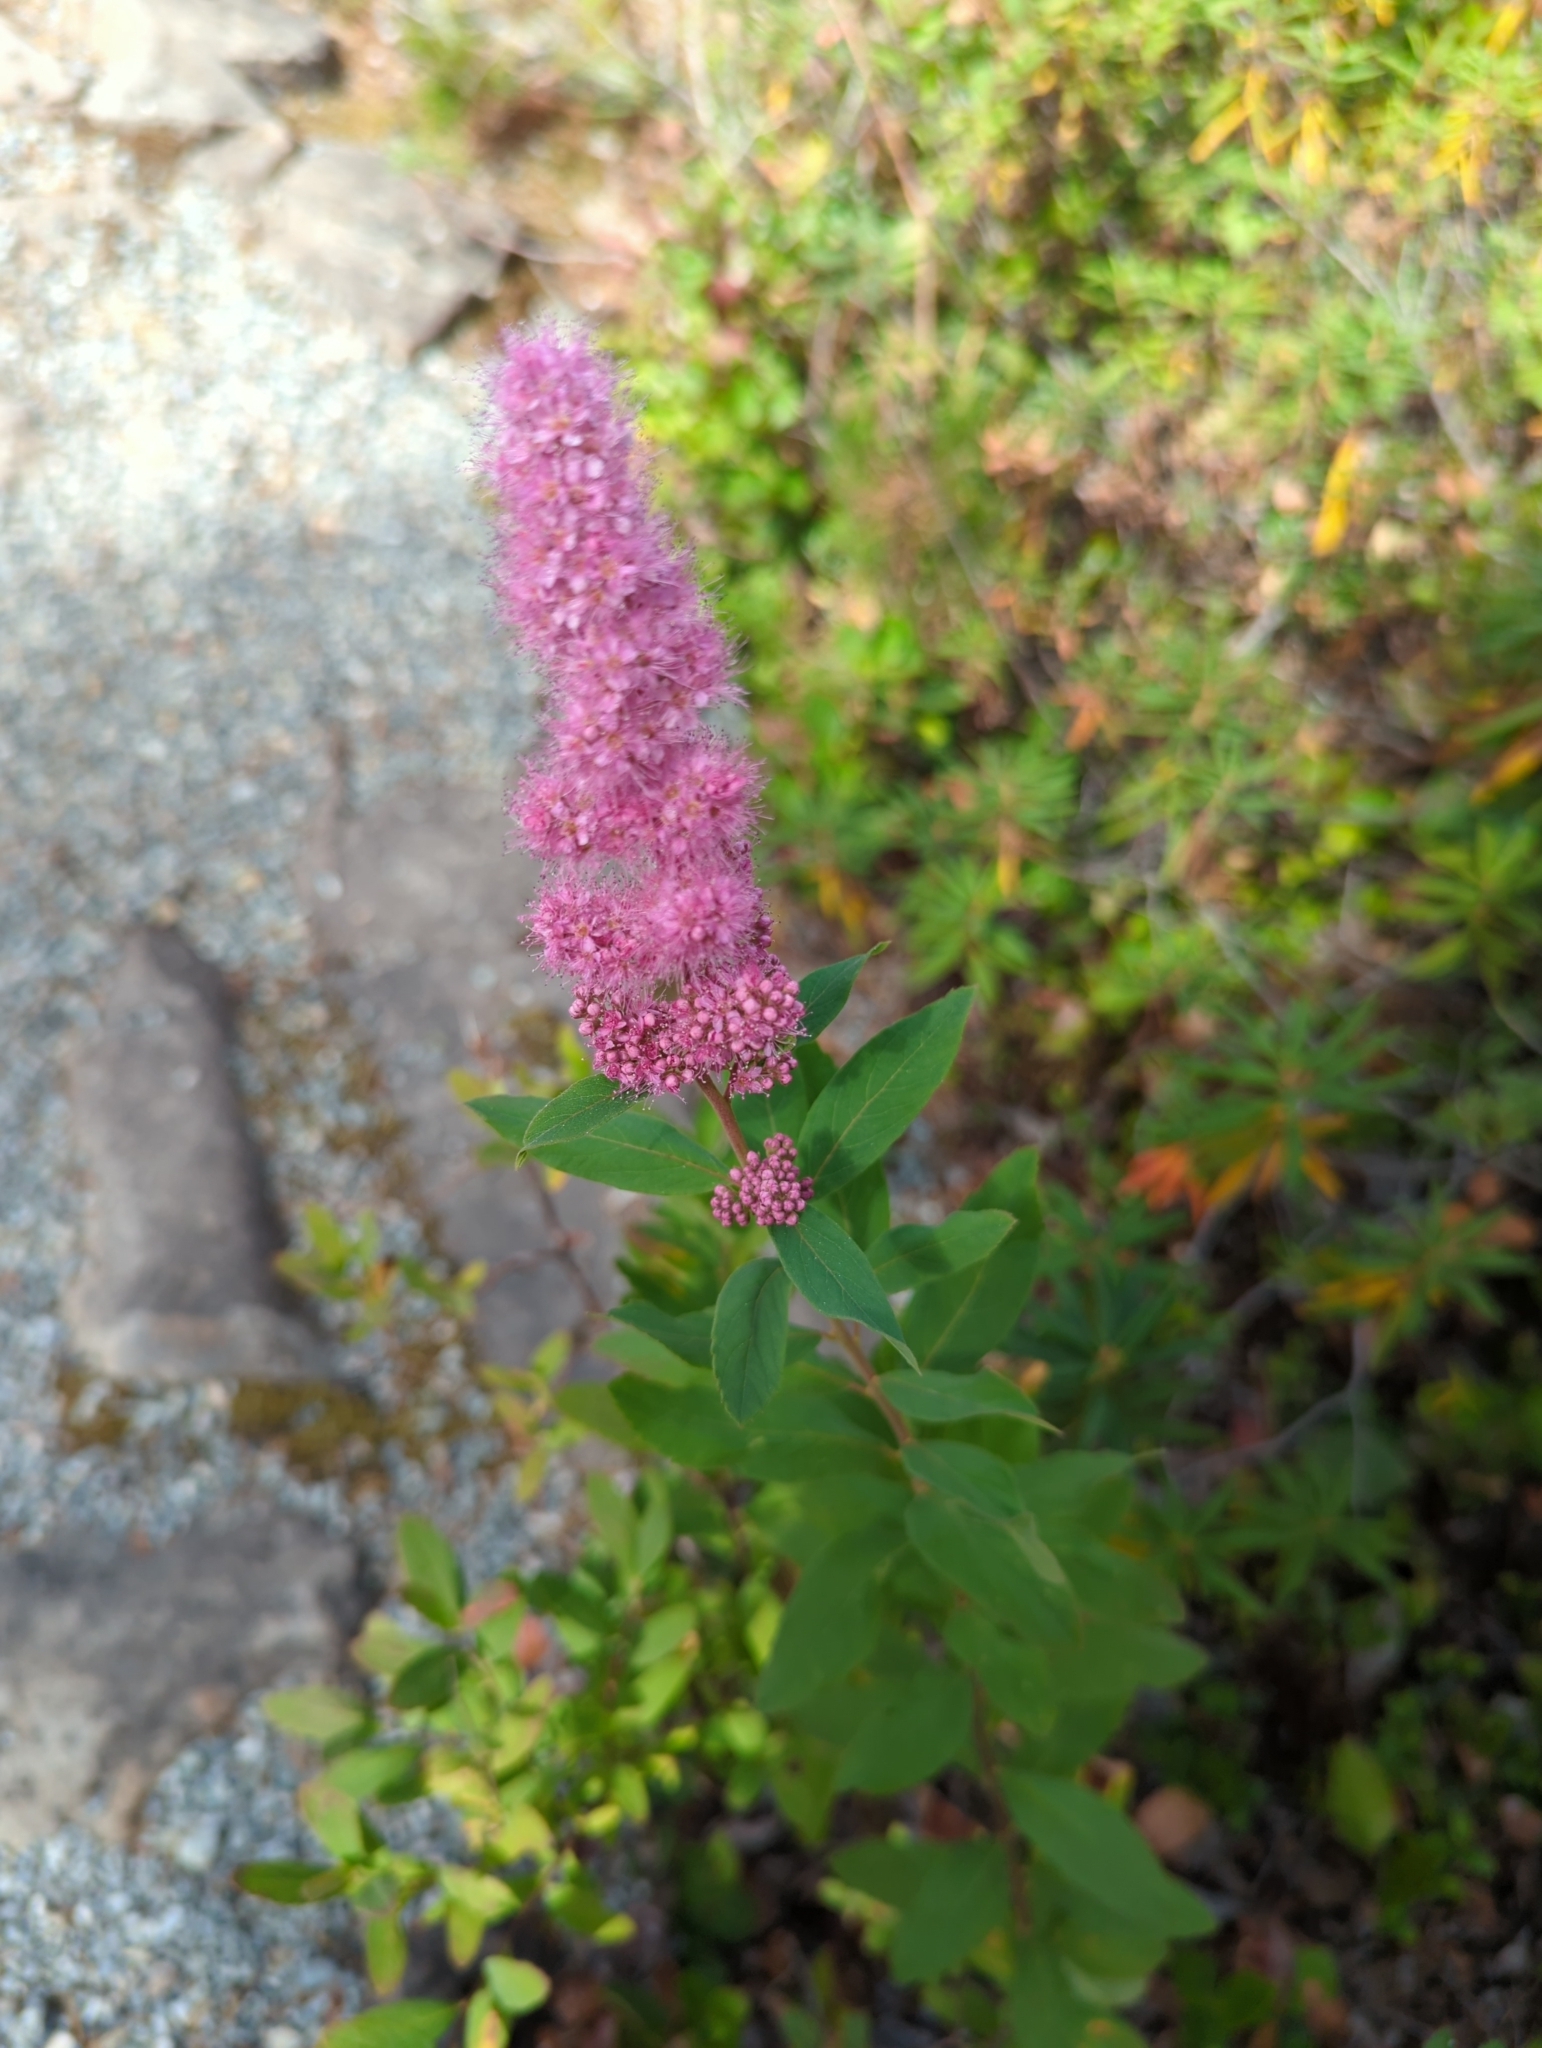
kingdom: Plantae
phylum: Tracheophyta
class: Magnoliopsida
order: Rosales
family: Rosaceae
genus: Spiraea
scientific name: Spiraea douglasii
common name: Steeplebush
